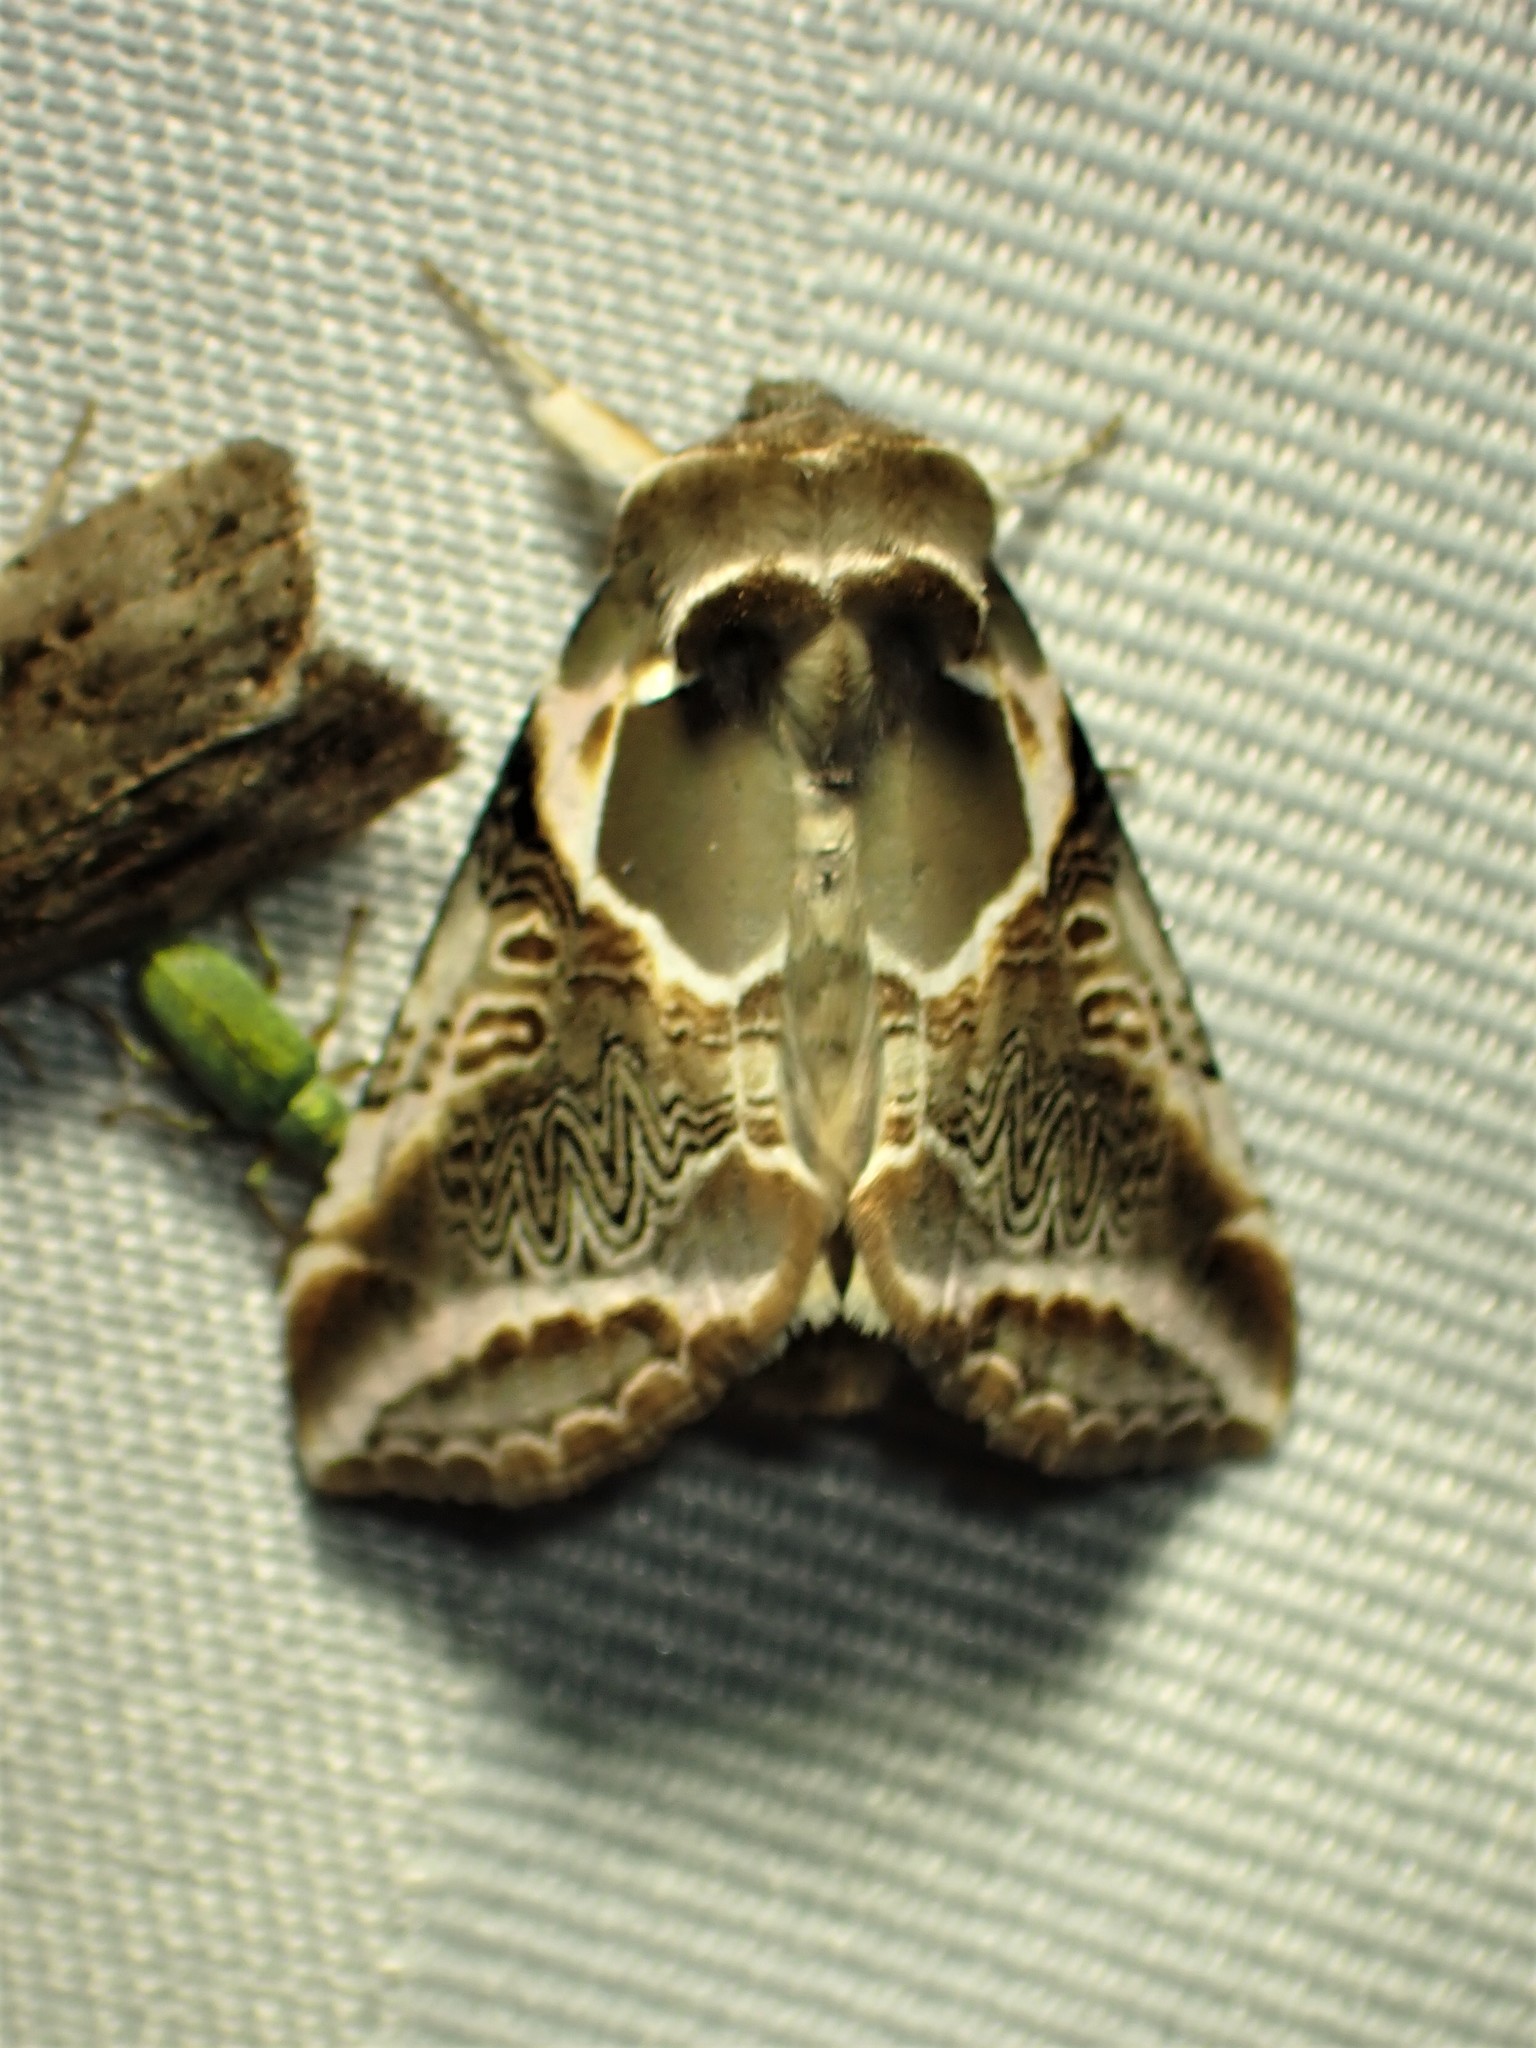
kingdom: Animalia
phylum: Arthropoda
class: Insecta
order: Lepidoptera
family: Drepanidae
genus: Habrosyne
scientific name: Habrosyne scripta
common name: Lettered habrosyne moth
